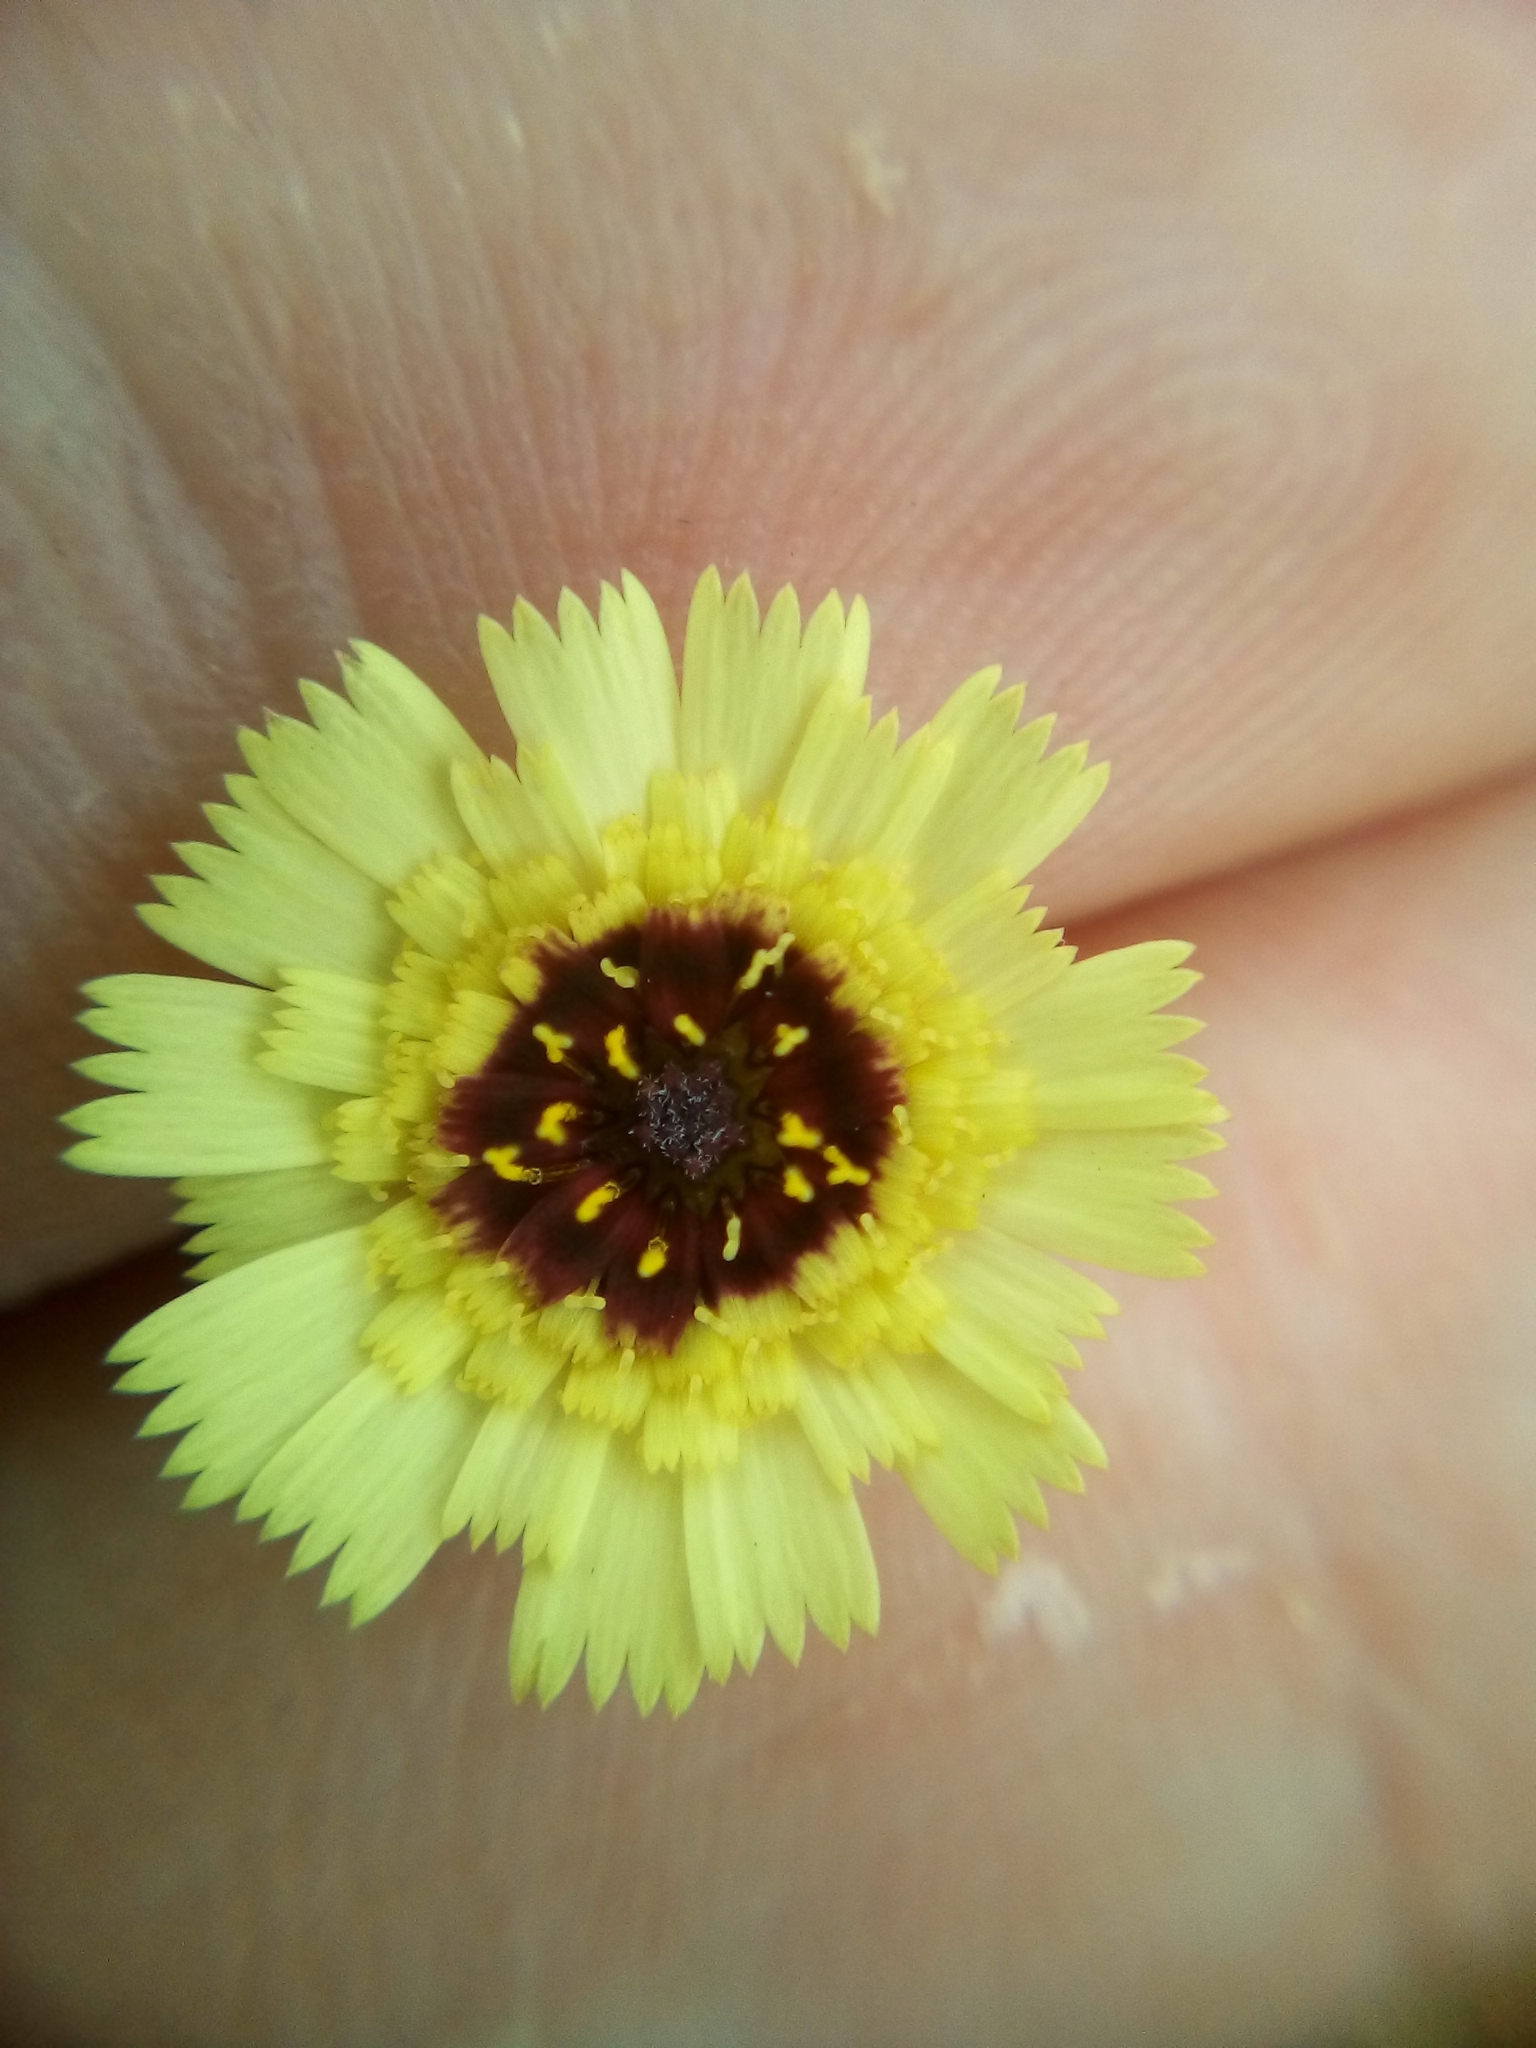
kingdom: Plantae
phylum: Tracheophyta
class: Magnoliopsida
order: Asterales
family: Asteraceae
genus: Tolpis
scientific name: Tolpis barbata
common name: Yellow hawkweed
